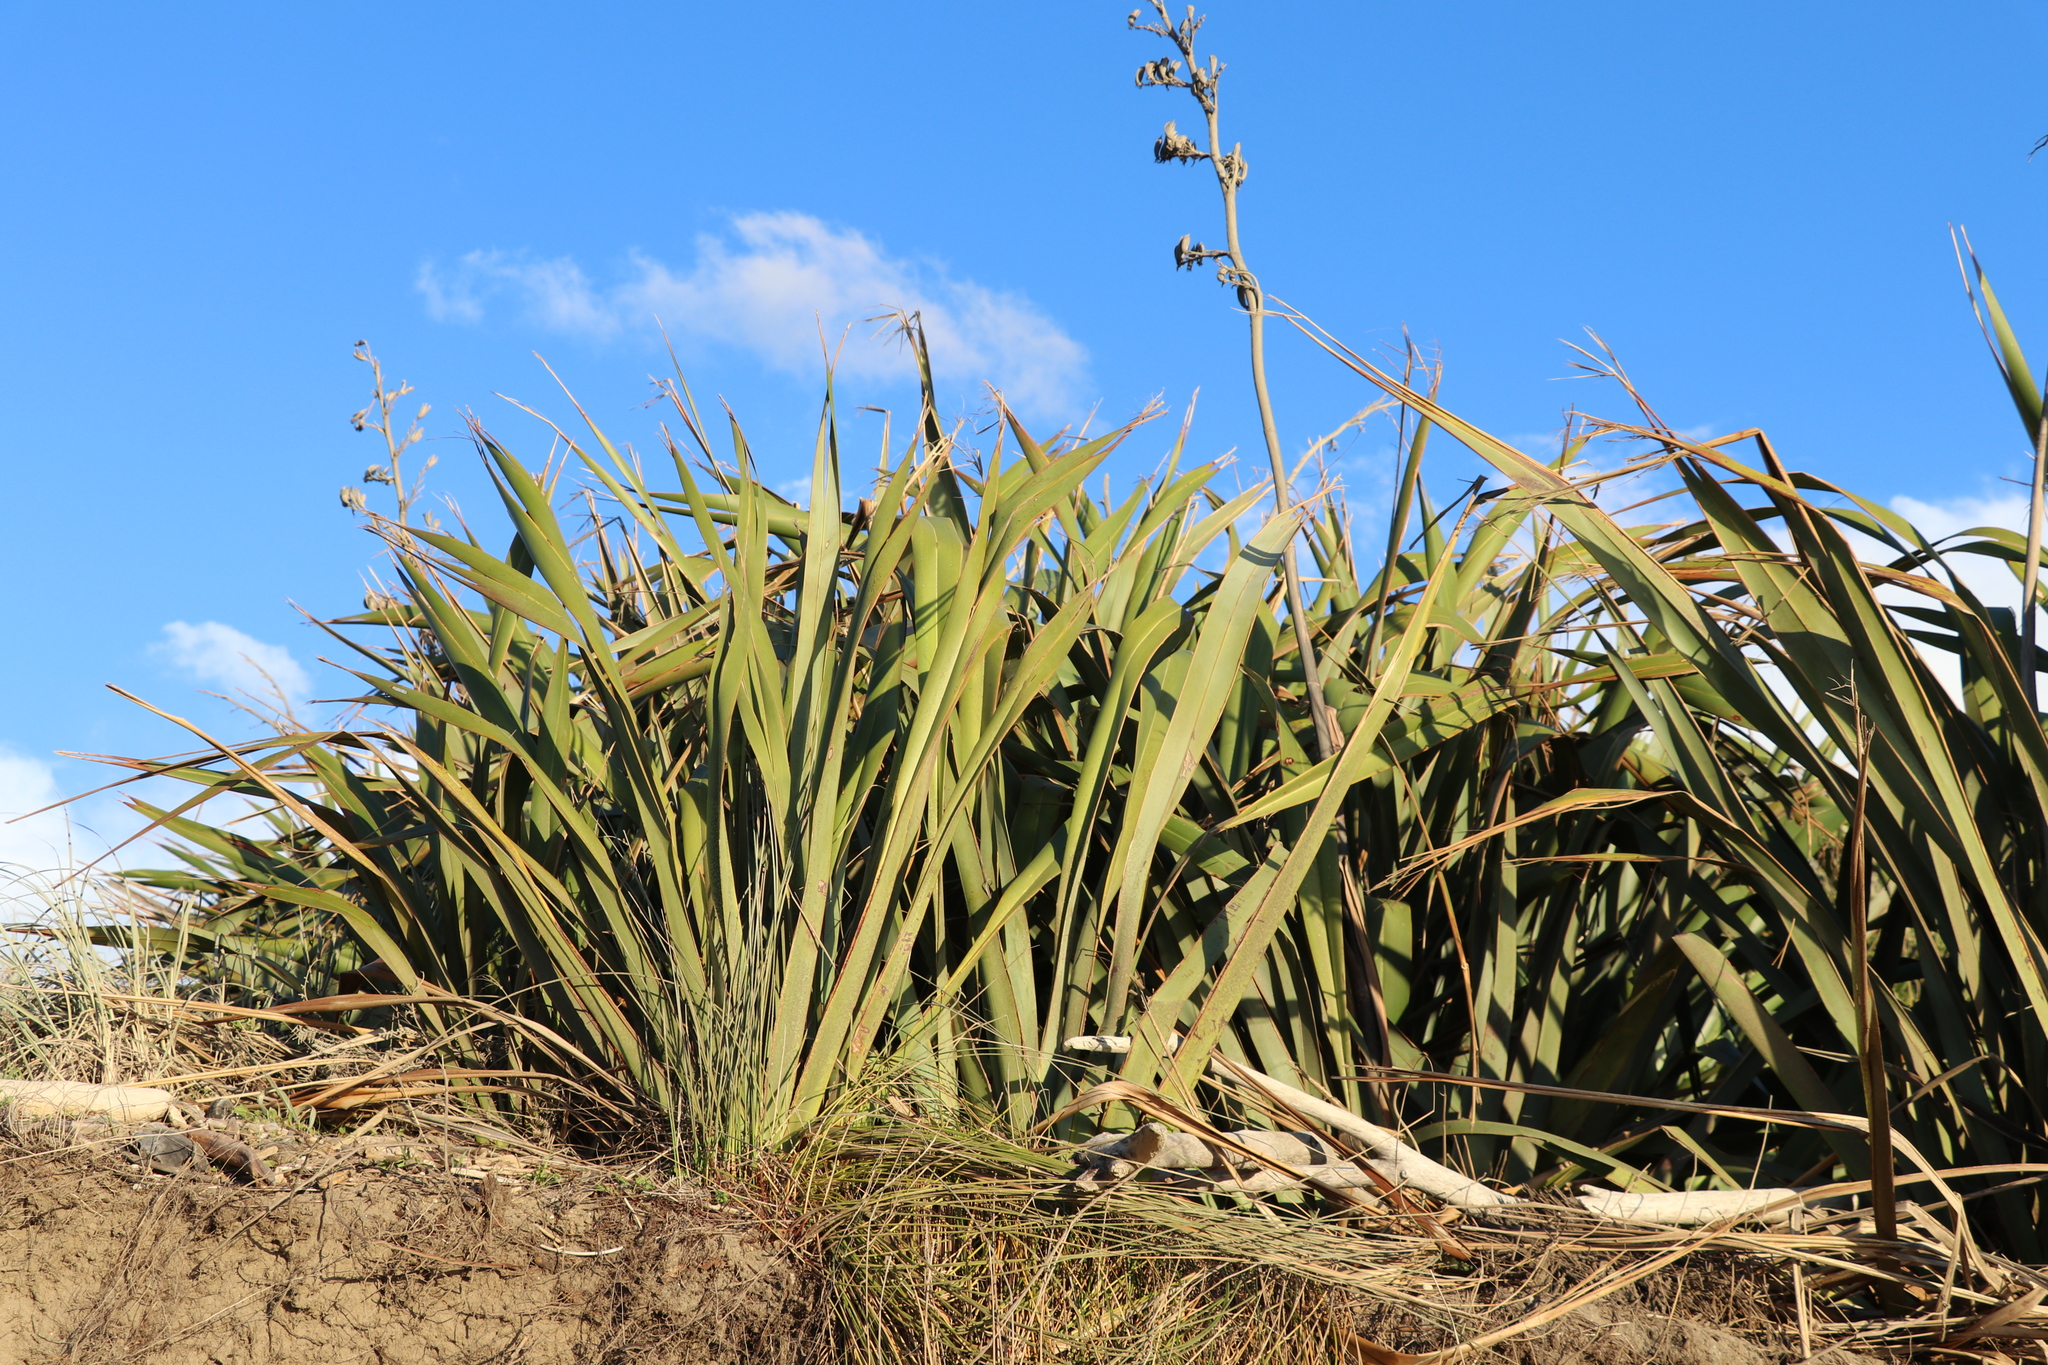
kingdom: Plantae
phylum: Tracheophyta
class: Liliopsida
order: Asparagales
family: Asphodelaceae
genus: Phormium
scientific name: Phormium tenax
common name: New zealand flax
